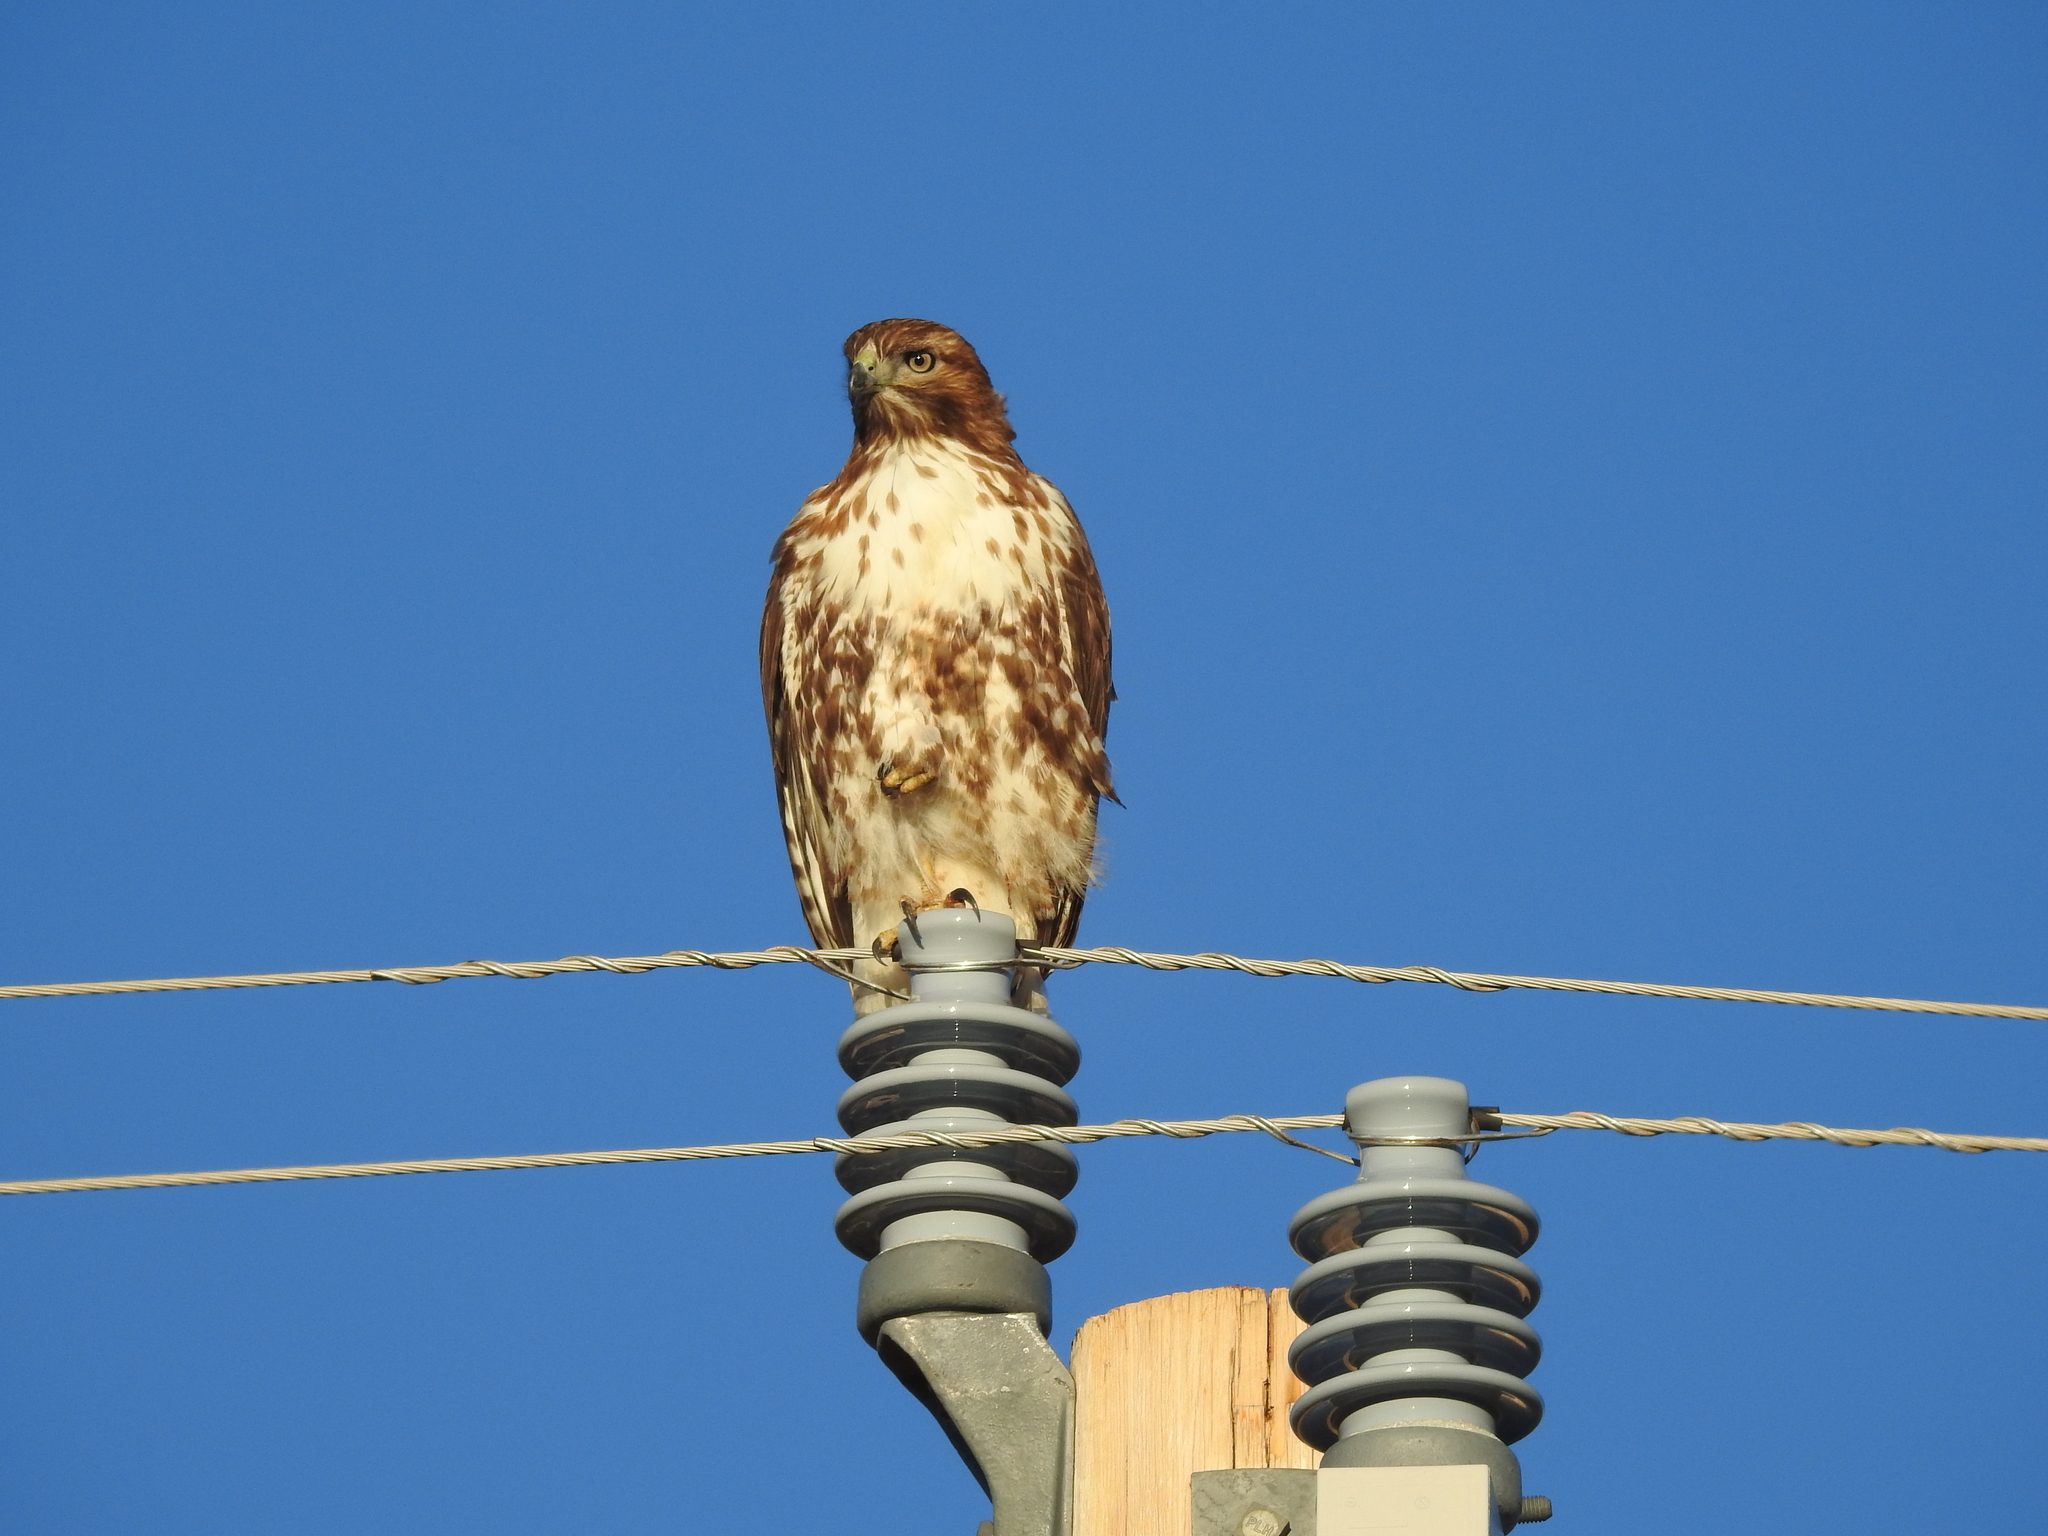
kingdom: Animalia
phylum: Chordata
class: Aves
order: Accipitriformes
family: Accipitridae
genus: Buteo
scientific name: Buteo jamaicensis
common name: Red-tailed hawk
